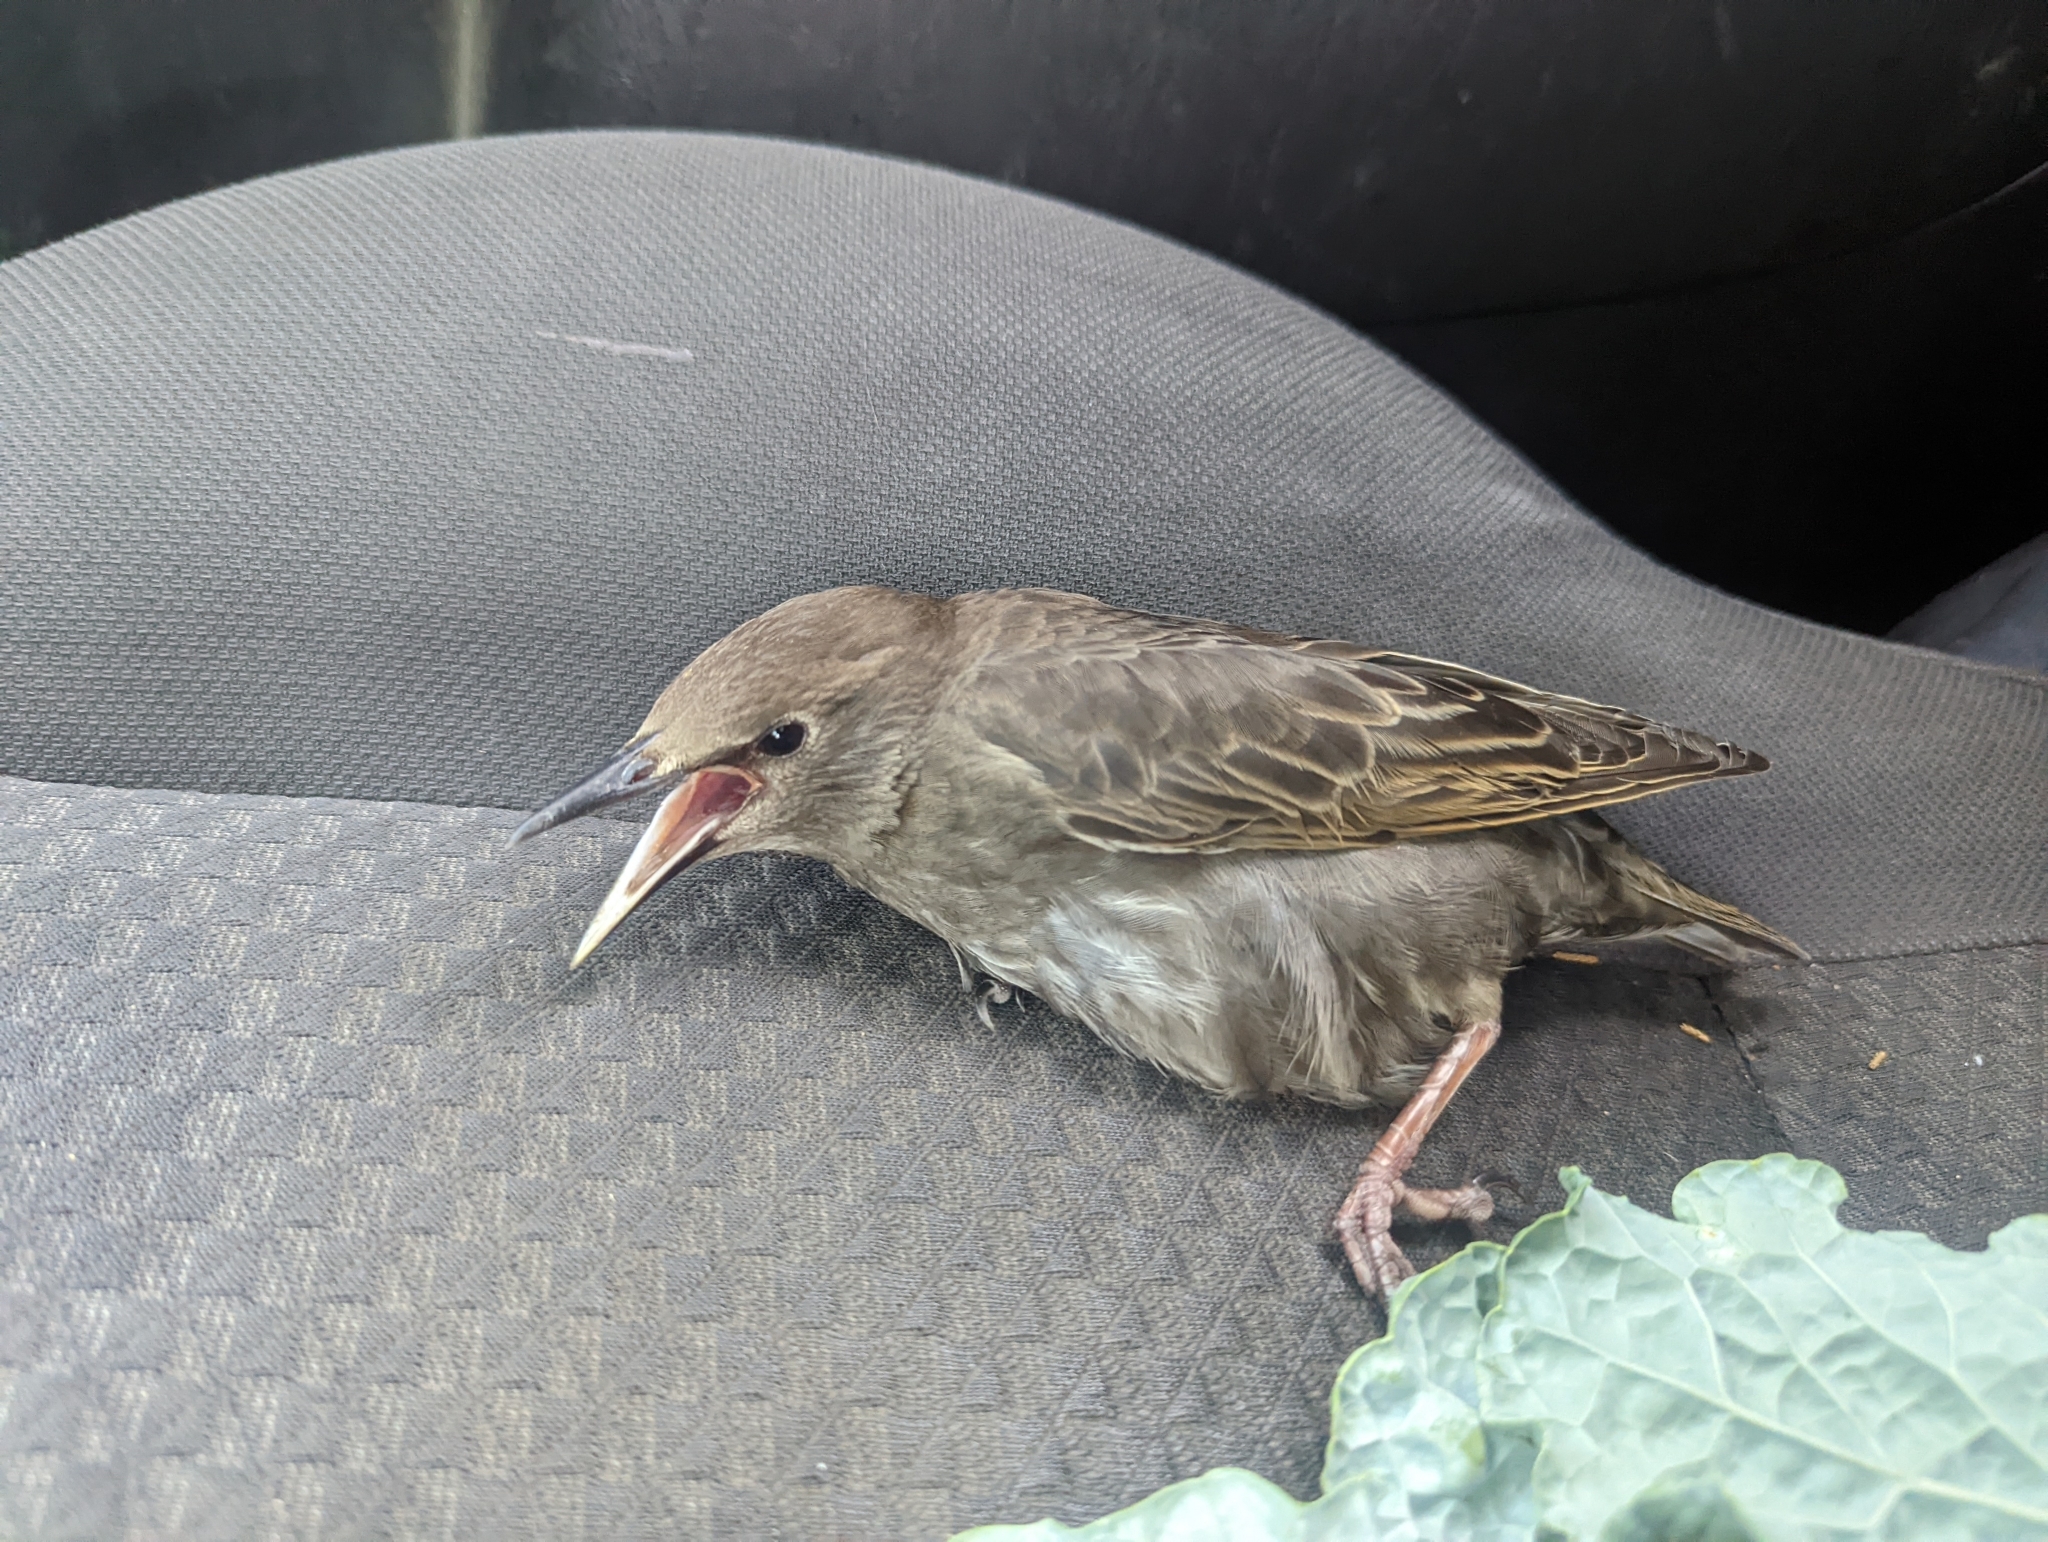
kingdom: Animalia
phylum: Chordata
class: Aves
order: Passeriformes
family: Sturnidae
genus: Sturnus
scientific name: Sturnus vulgaris
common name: Common starling
